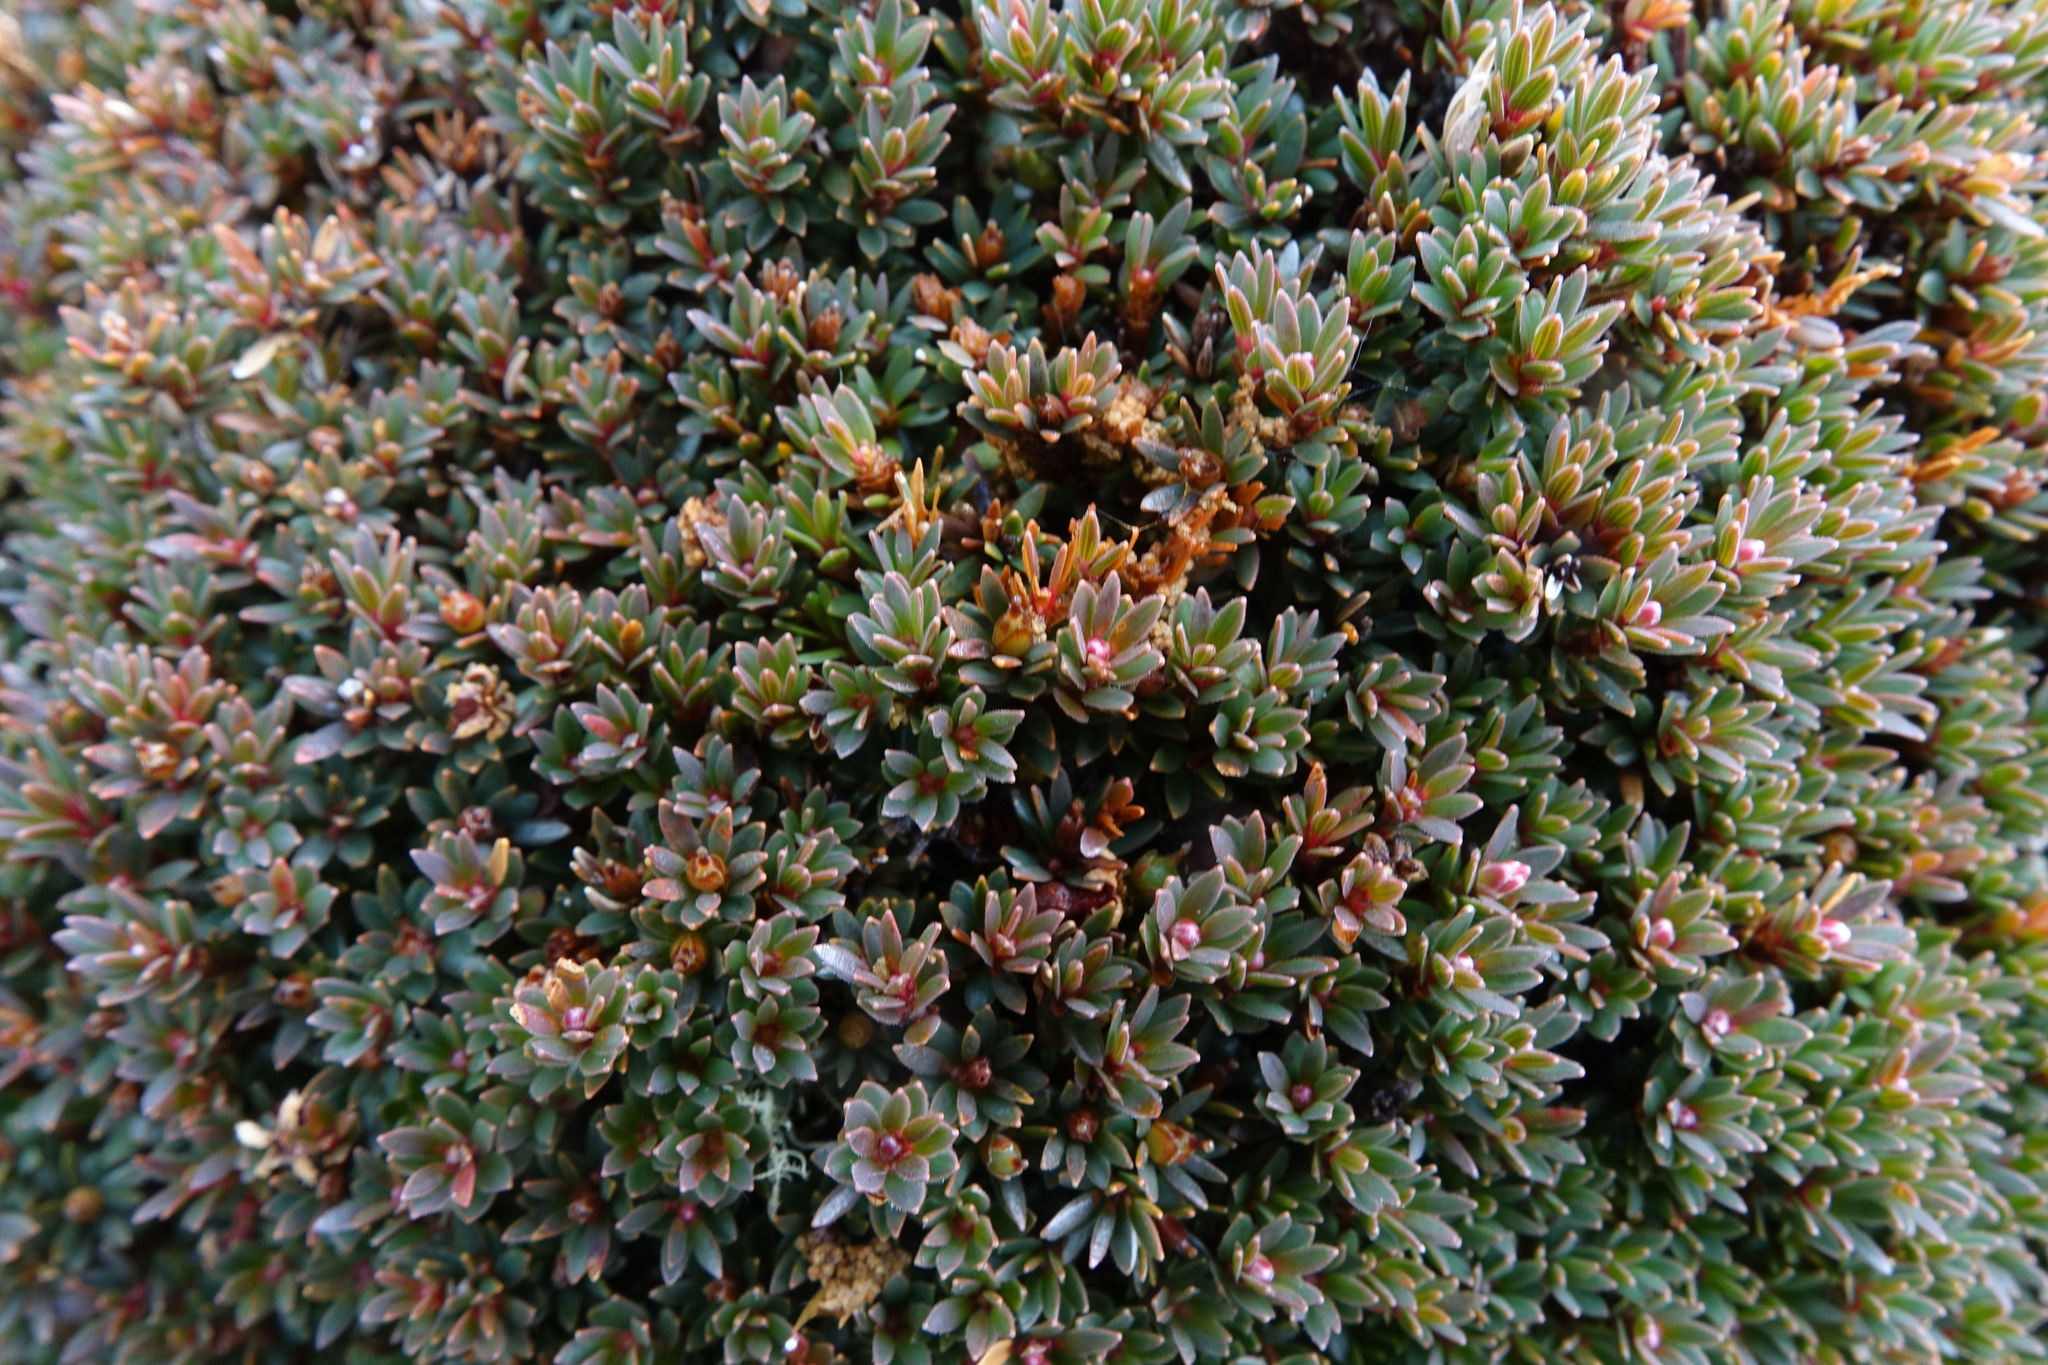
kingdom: Plantae
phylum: Tracheophyta
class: Magnoliopsida
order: Ericales
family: Ericaceae
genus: Pentachondra
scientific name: Pentachondra pumila
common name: Carpet-heath
